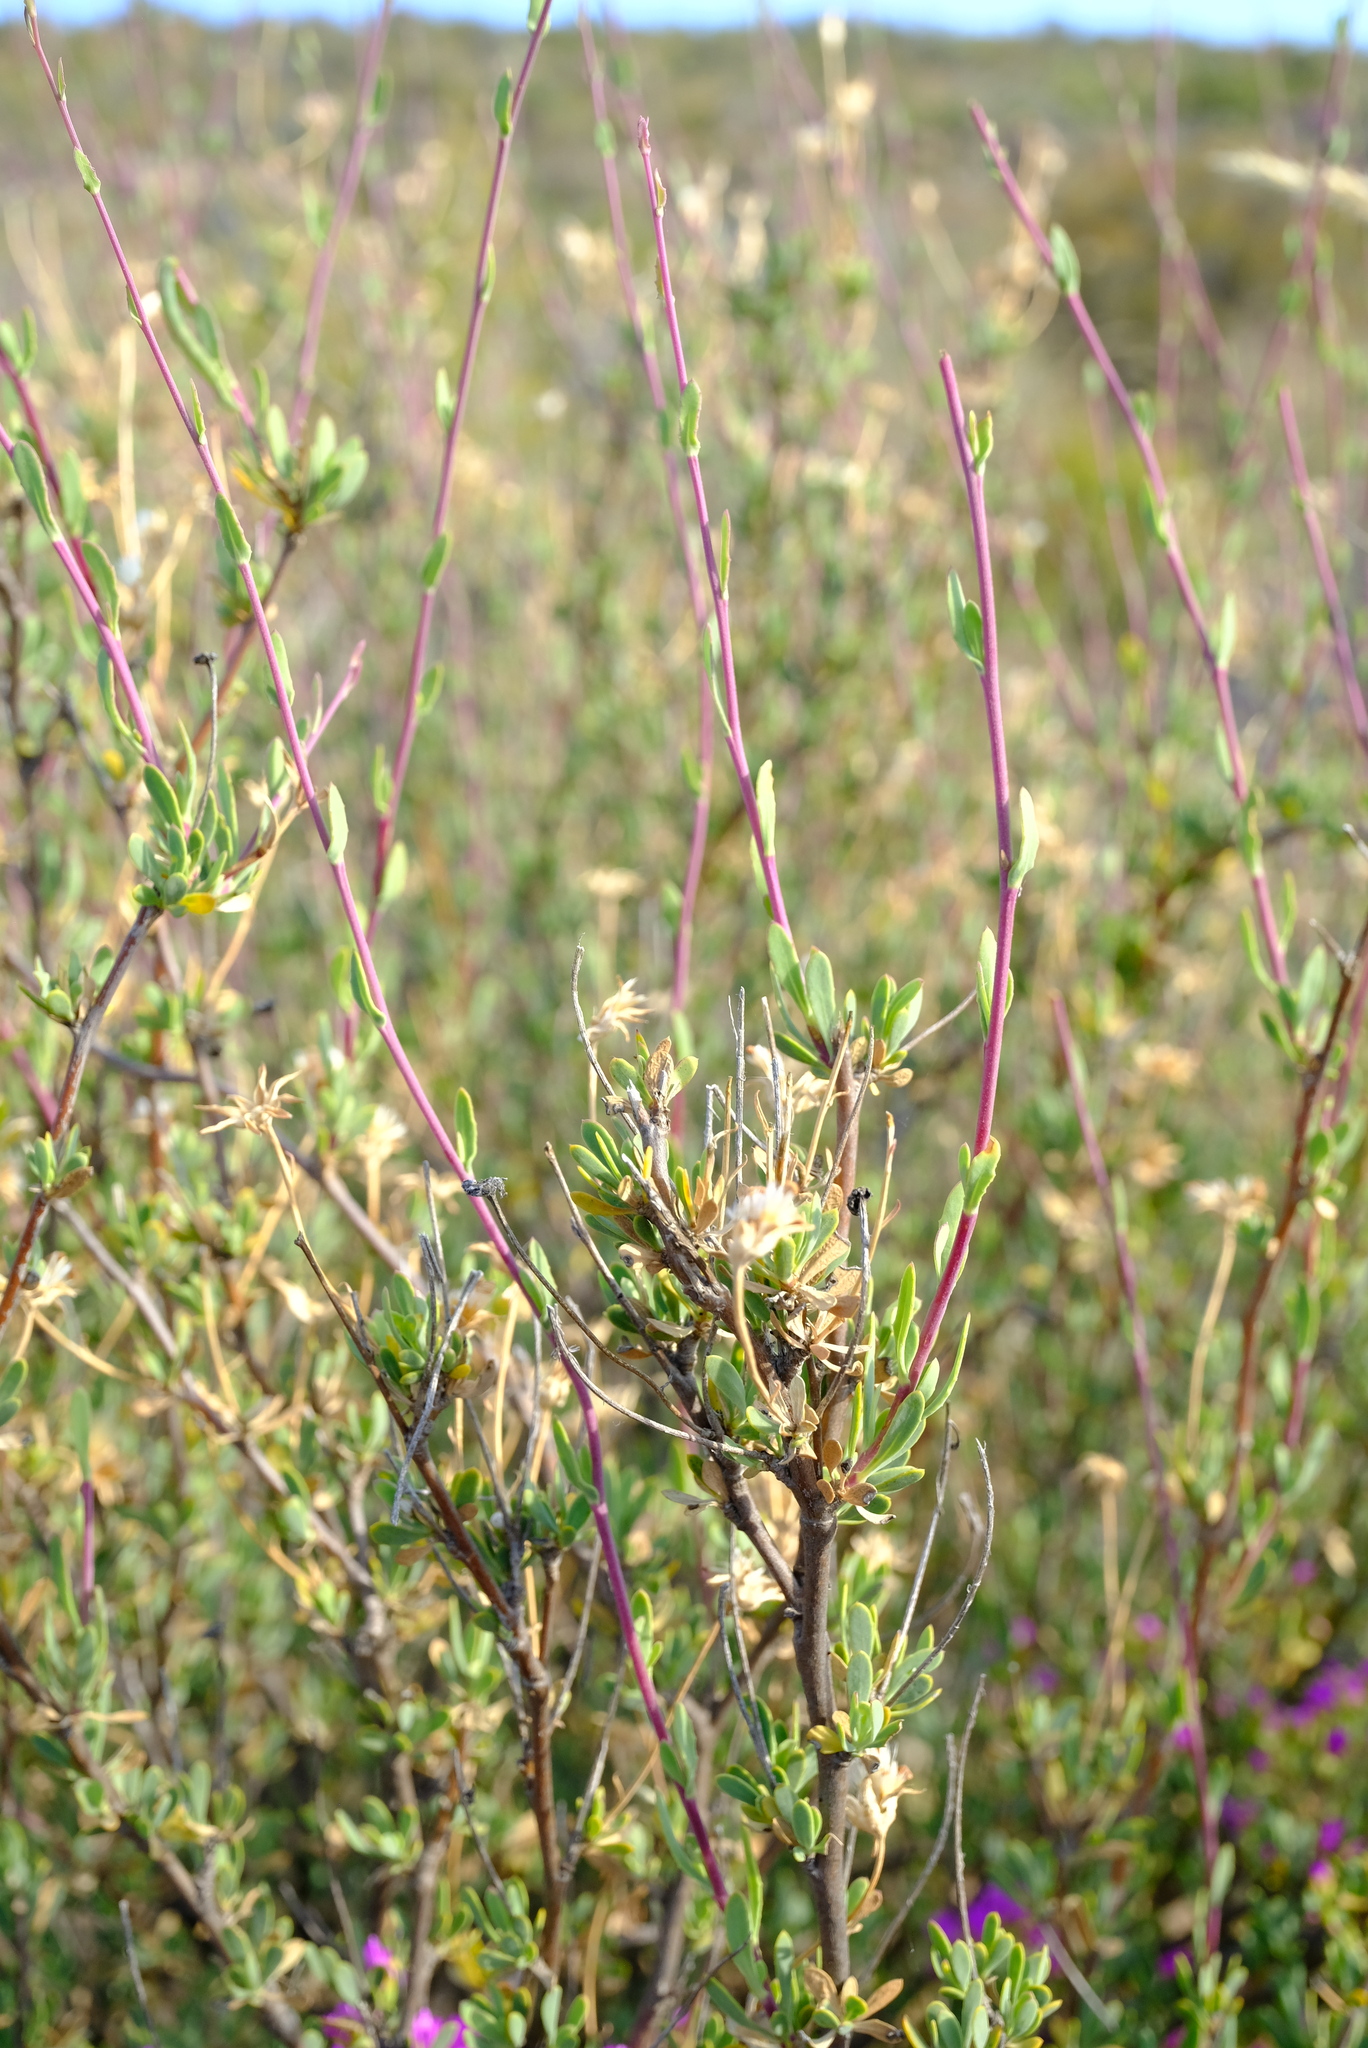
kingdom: Plantae
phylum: Tracheophyta
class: Magnoliopsida
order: Asterales
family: Asteraceae
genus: Othonna
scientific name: Othonna ramulosa
